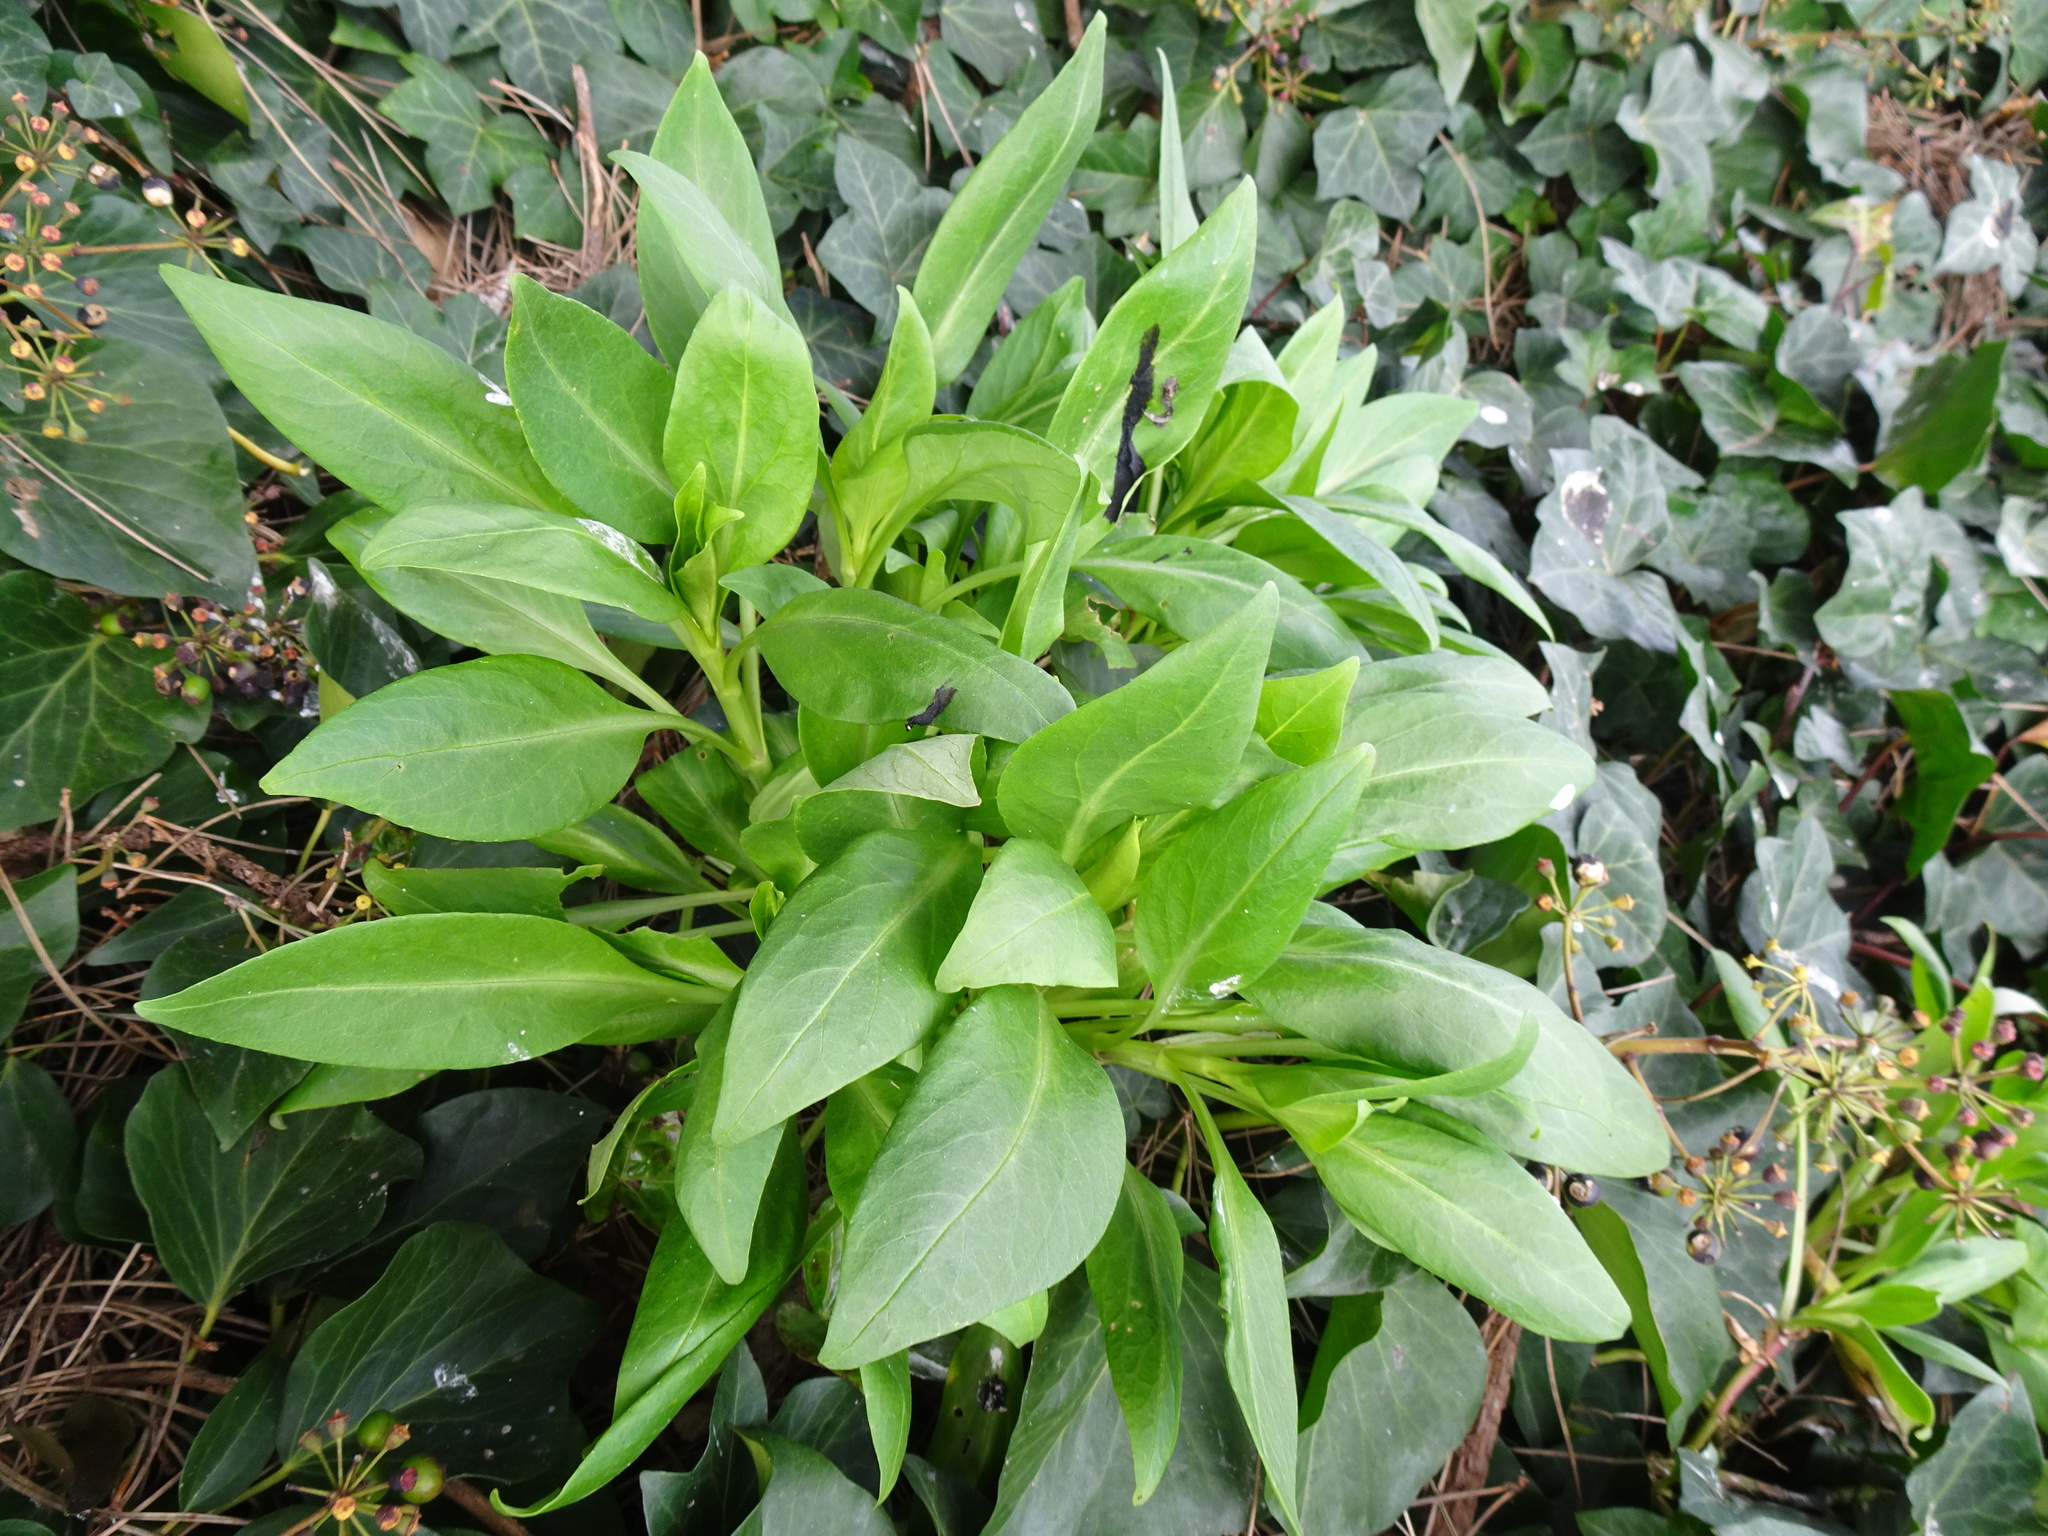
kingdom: Plantae
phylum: Tracheophyta
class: Magnoliopsida
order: Dipsacales
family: Caprifoliaceae
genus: Centranthus
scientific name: Centranthus ruber
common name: Red valerian
